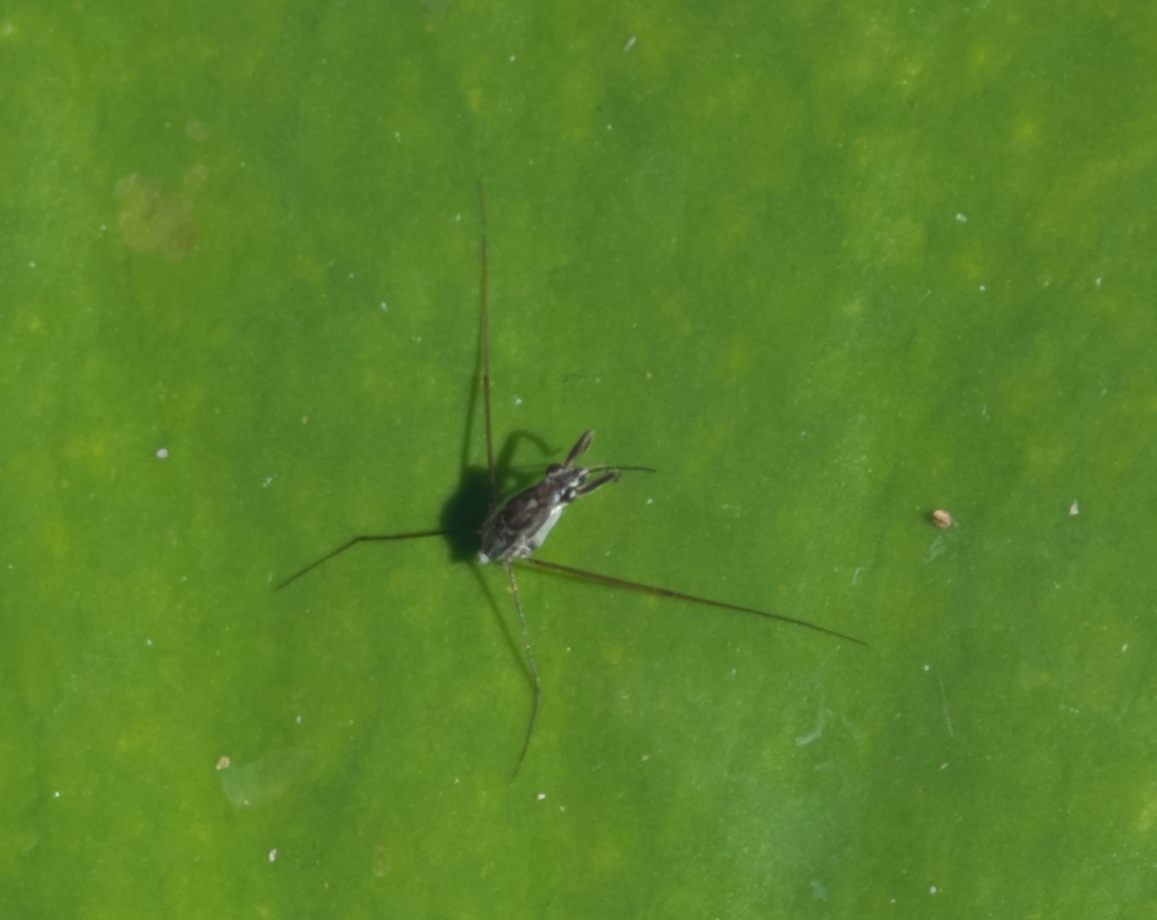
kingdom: Animalia
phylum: Arthropoda
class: Insecta
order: Hemiptera
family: Gerridae
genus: Neogerris
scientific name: Neogerris hesione
